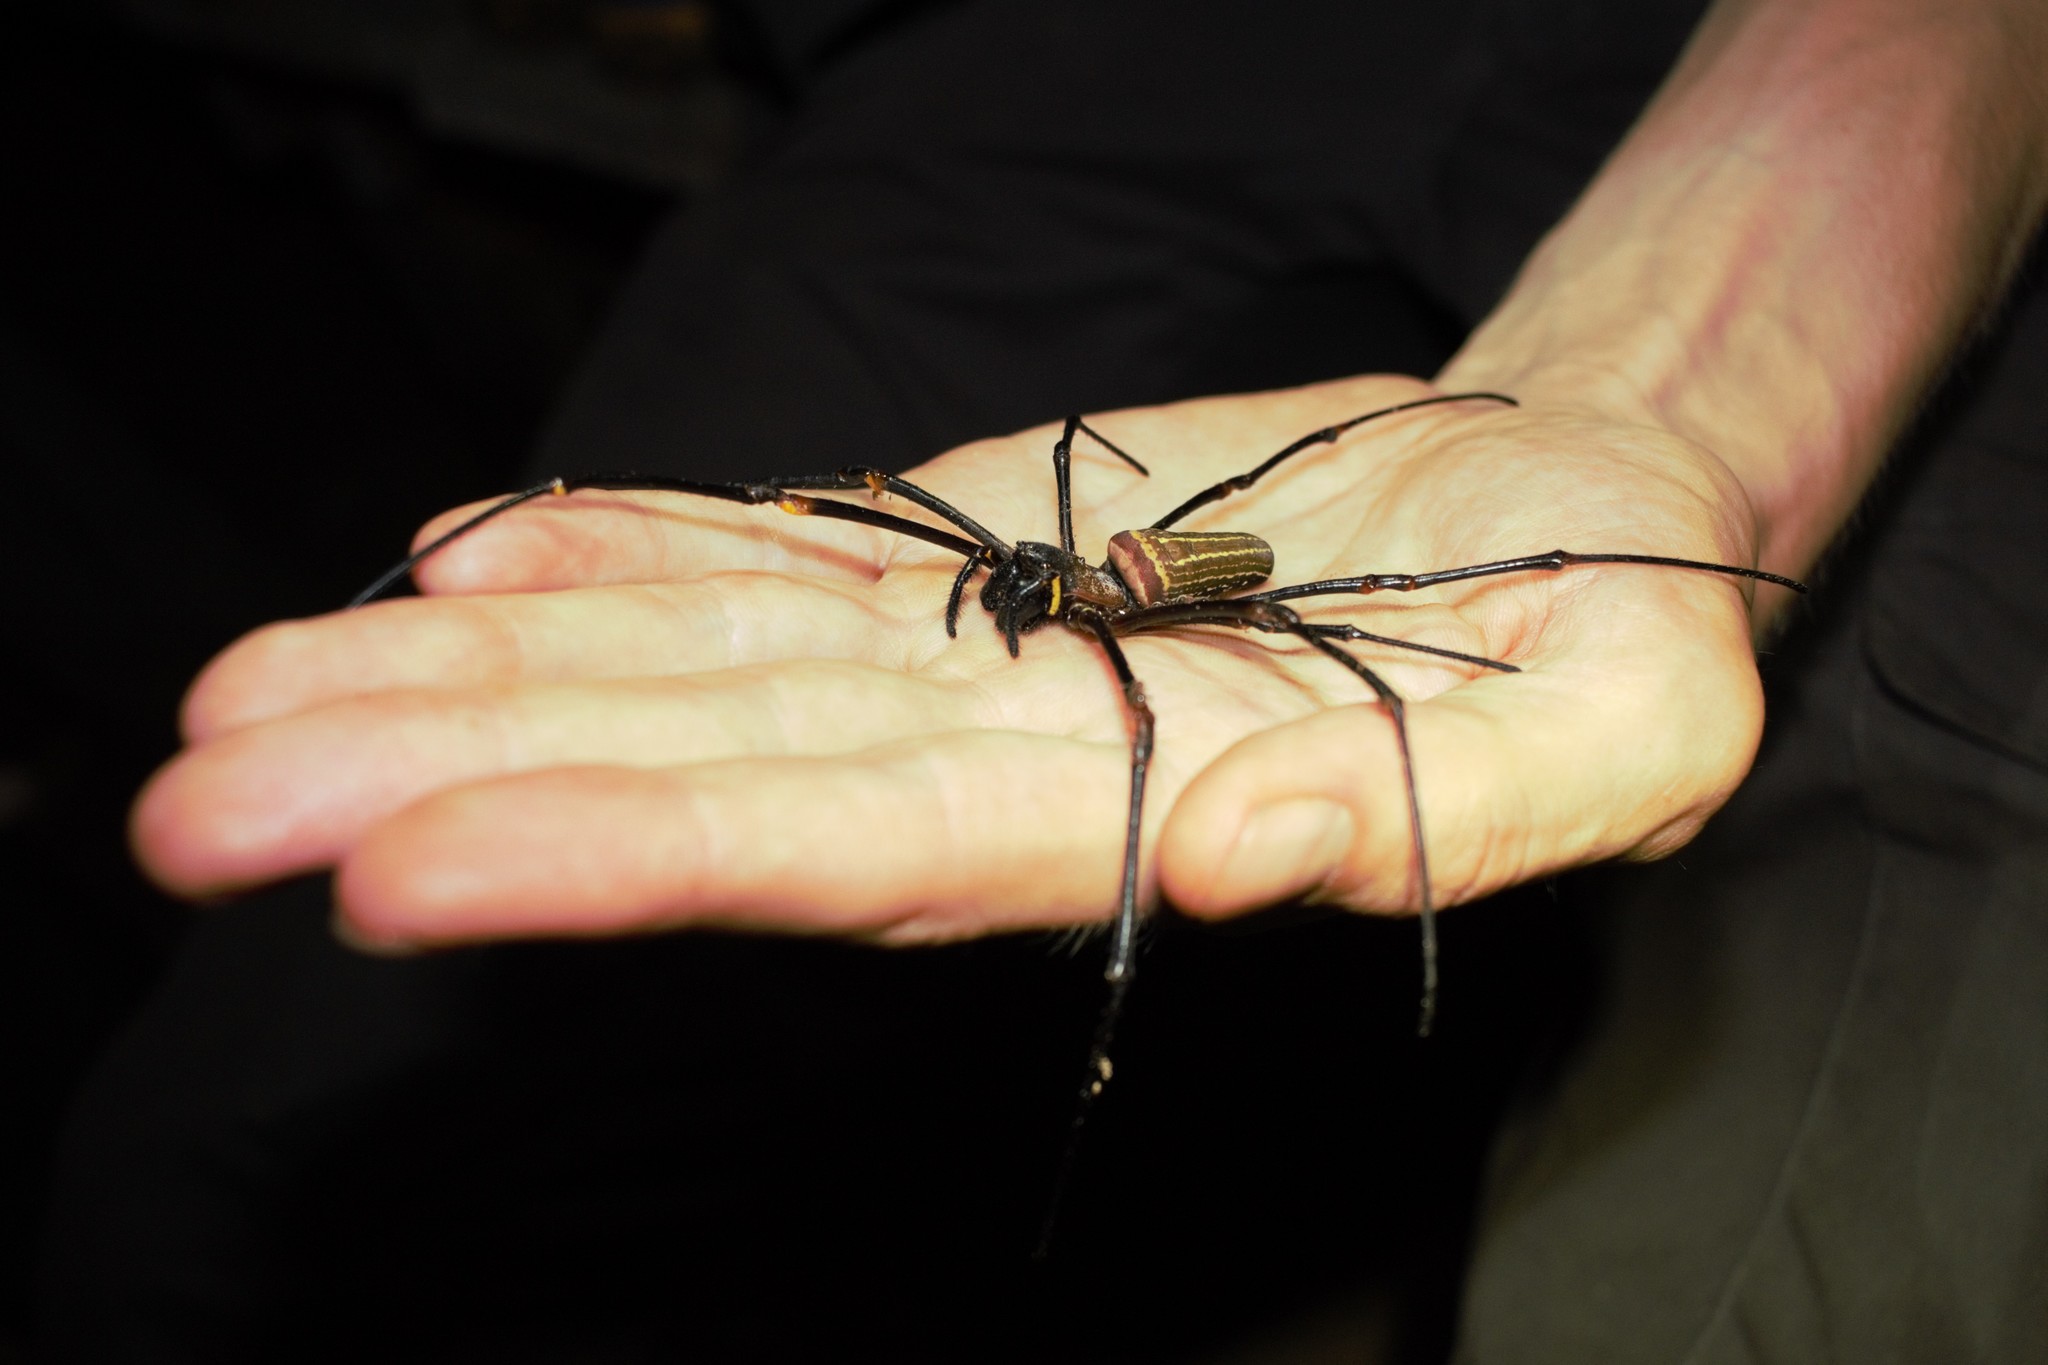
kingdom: Animalia
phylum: Arthropoda
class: Arachnida
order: Araneae
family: Araneidae
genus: Nephila
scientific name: Nephila constricta
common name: Constricted golden orb weaver
